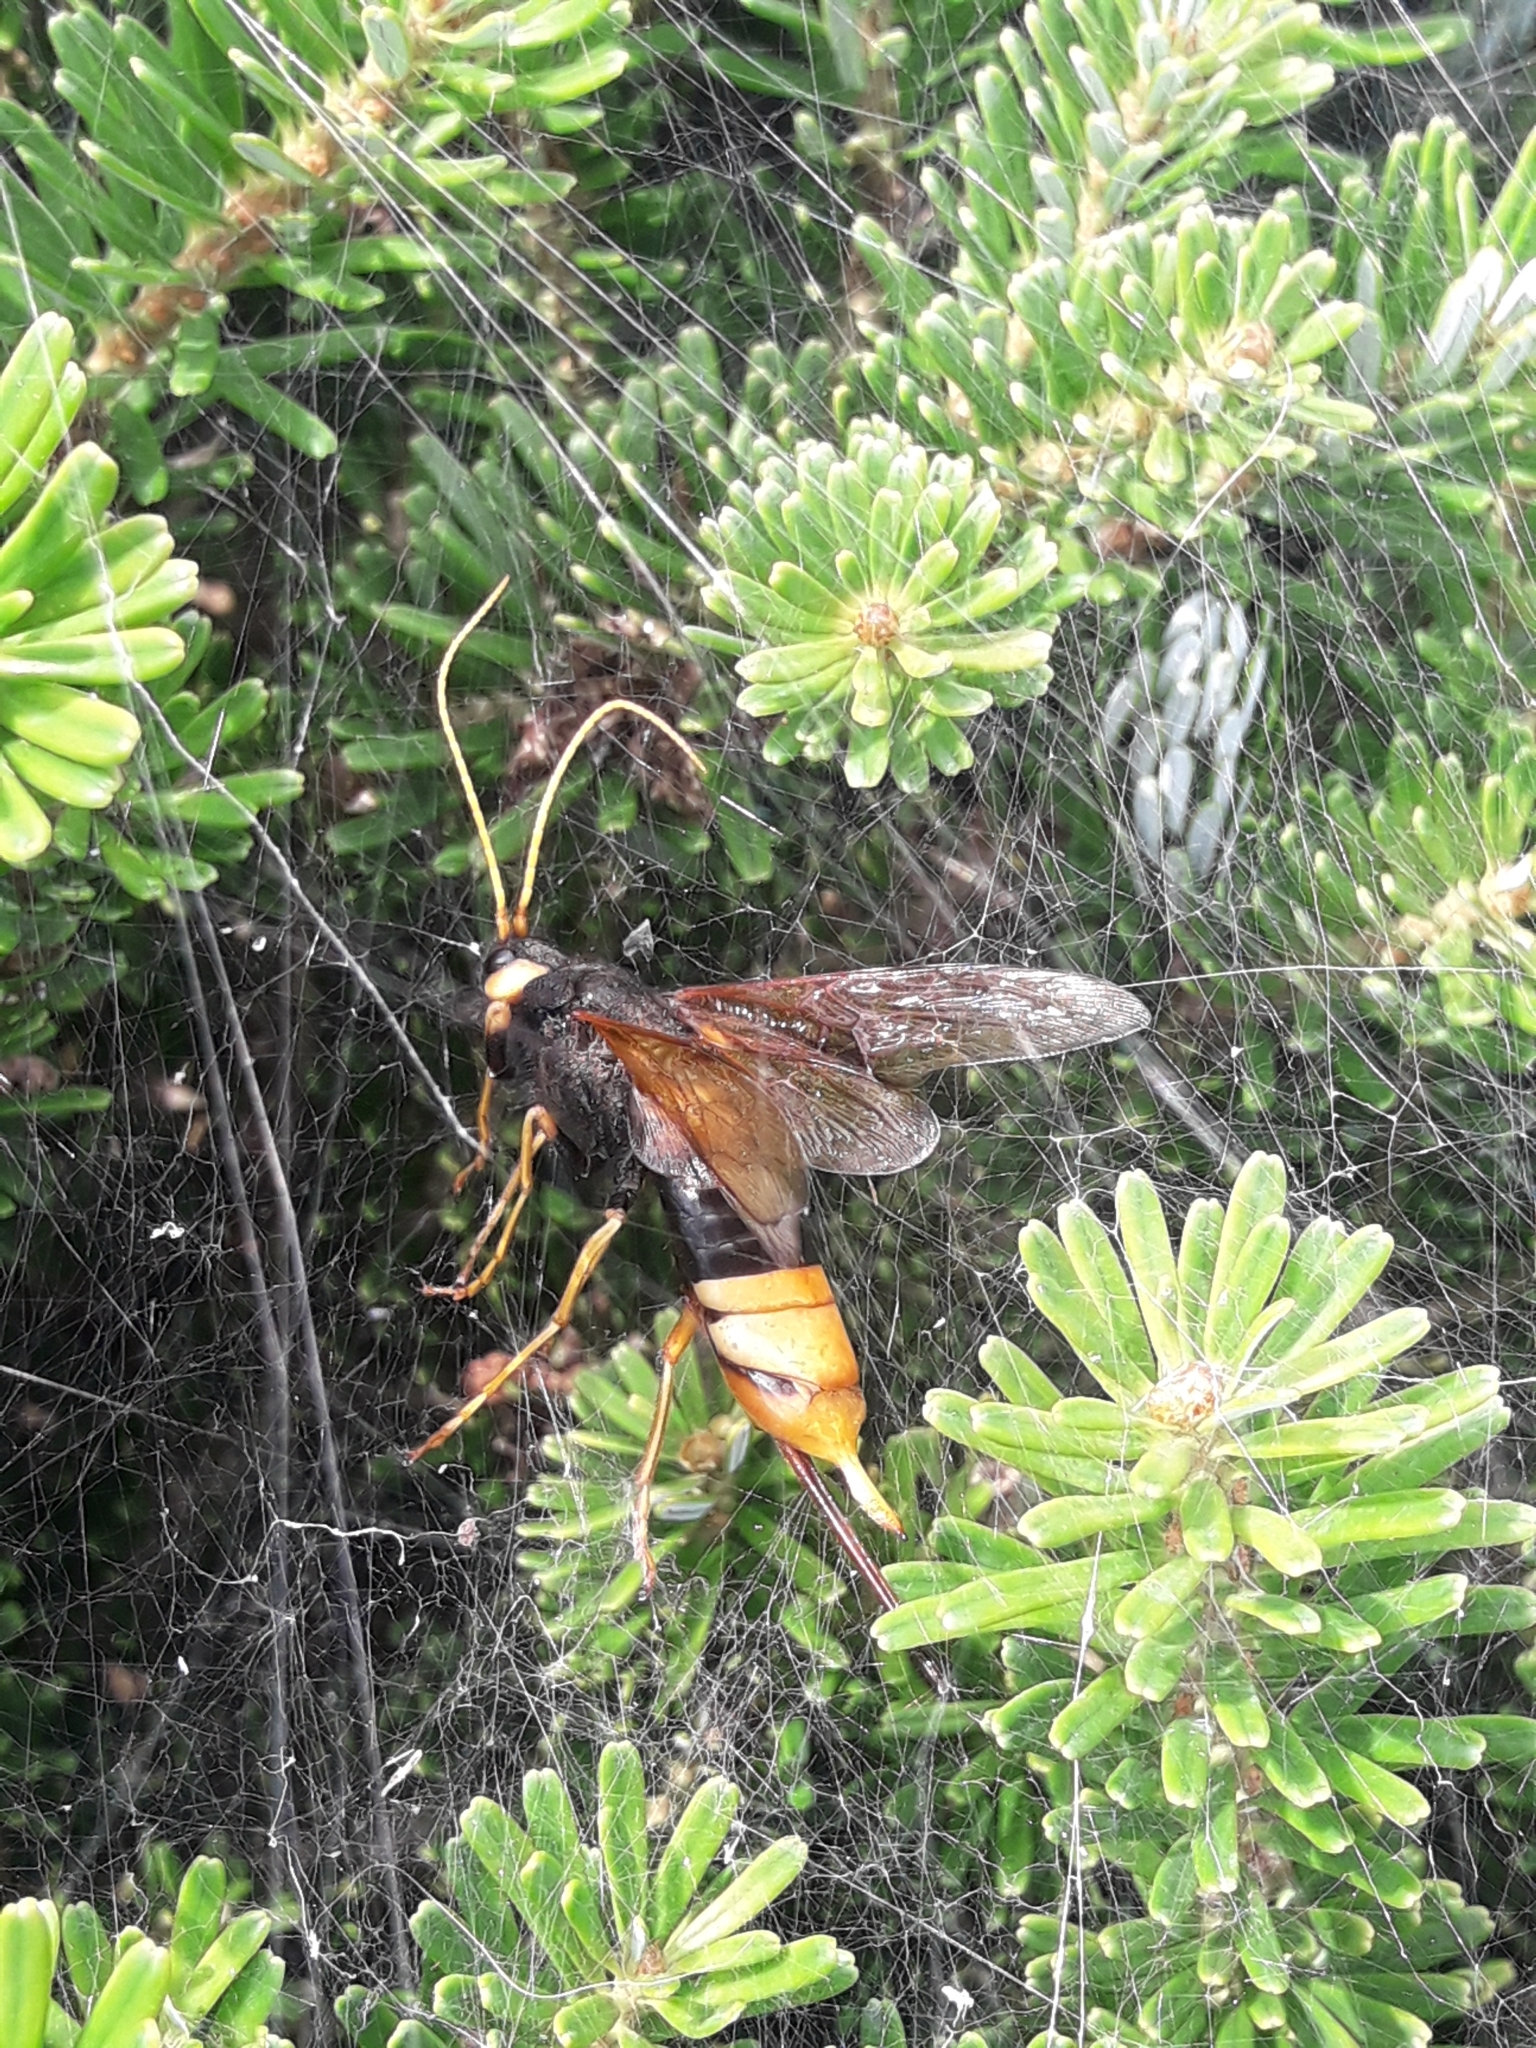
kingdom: Animalia
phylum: Arthropoda
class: Insecta
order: Hymenoptera
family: Siricidae
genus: Urocerus
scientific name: Urocerus gigas
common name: Giant woodwasp
